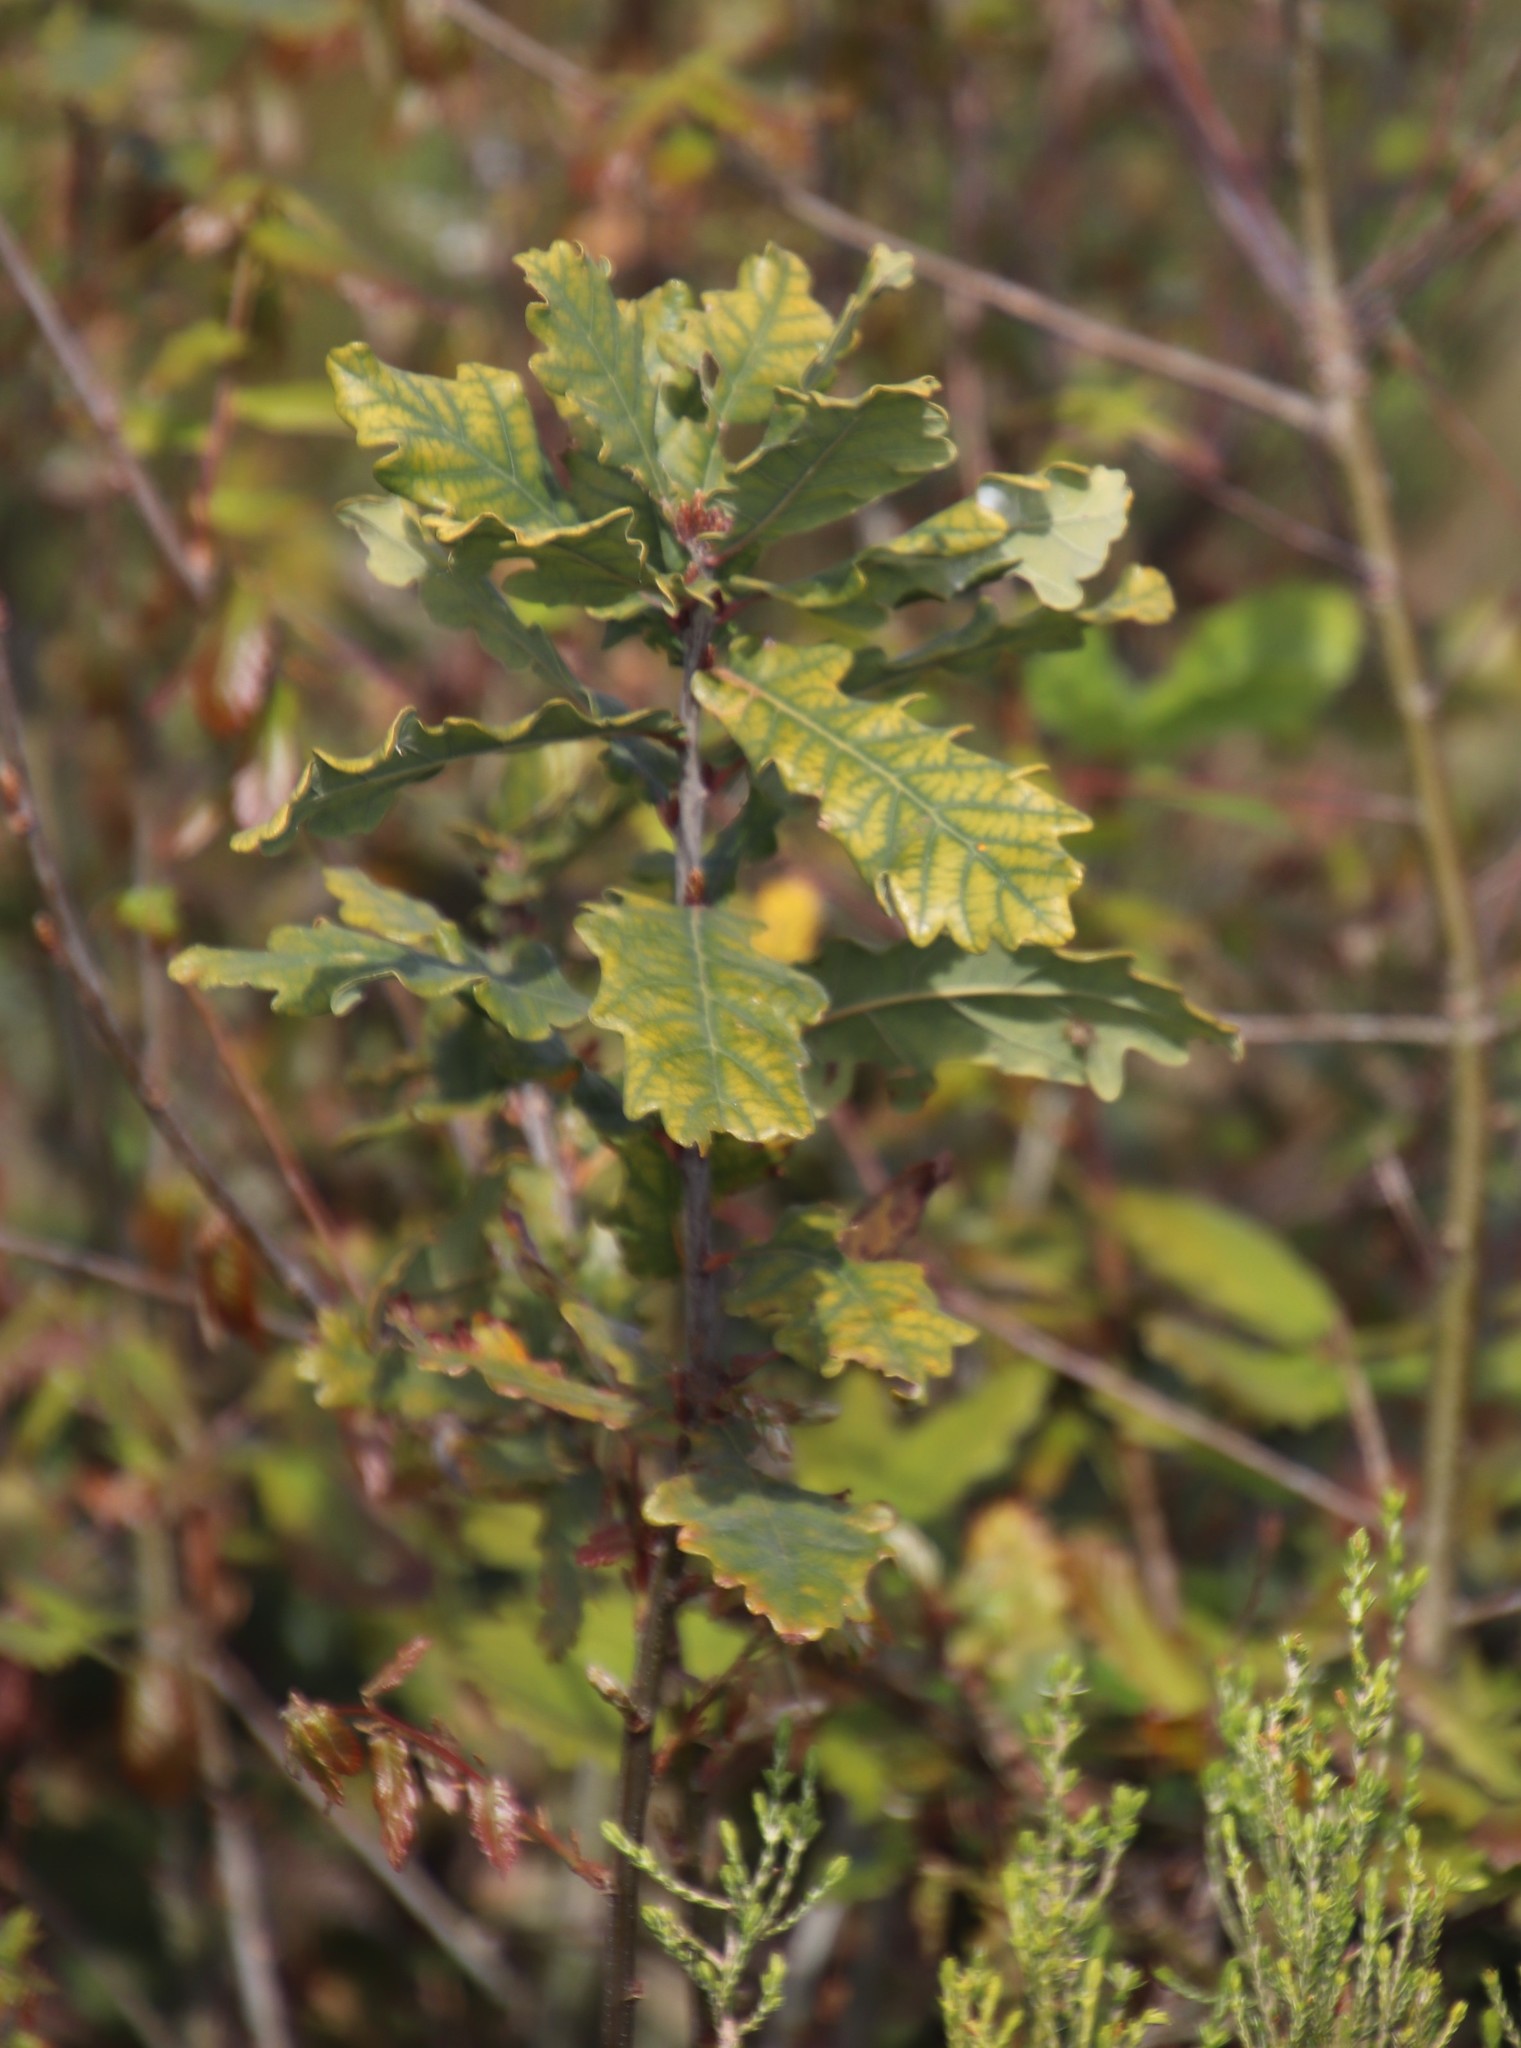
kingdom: Plantae
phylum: Tracheophyta
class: Magnoliopsida
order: Fagales
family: Fagaceae
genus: Quercus
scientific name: Quercus robur
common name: Pedunculate oak
